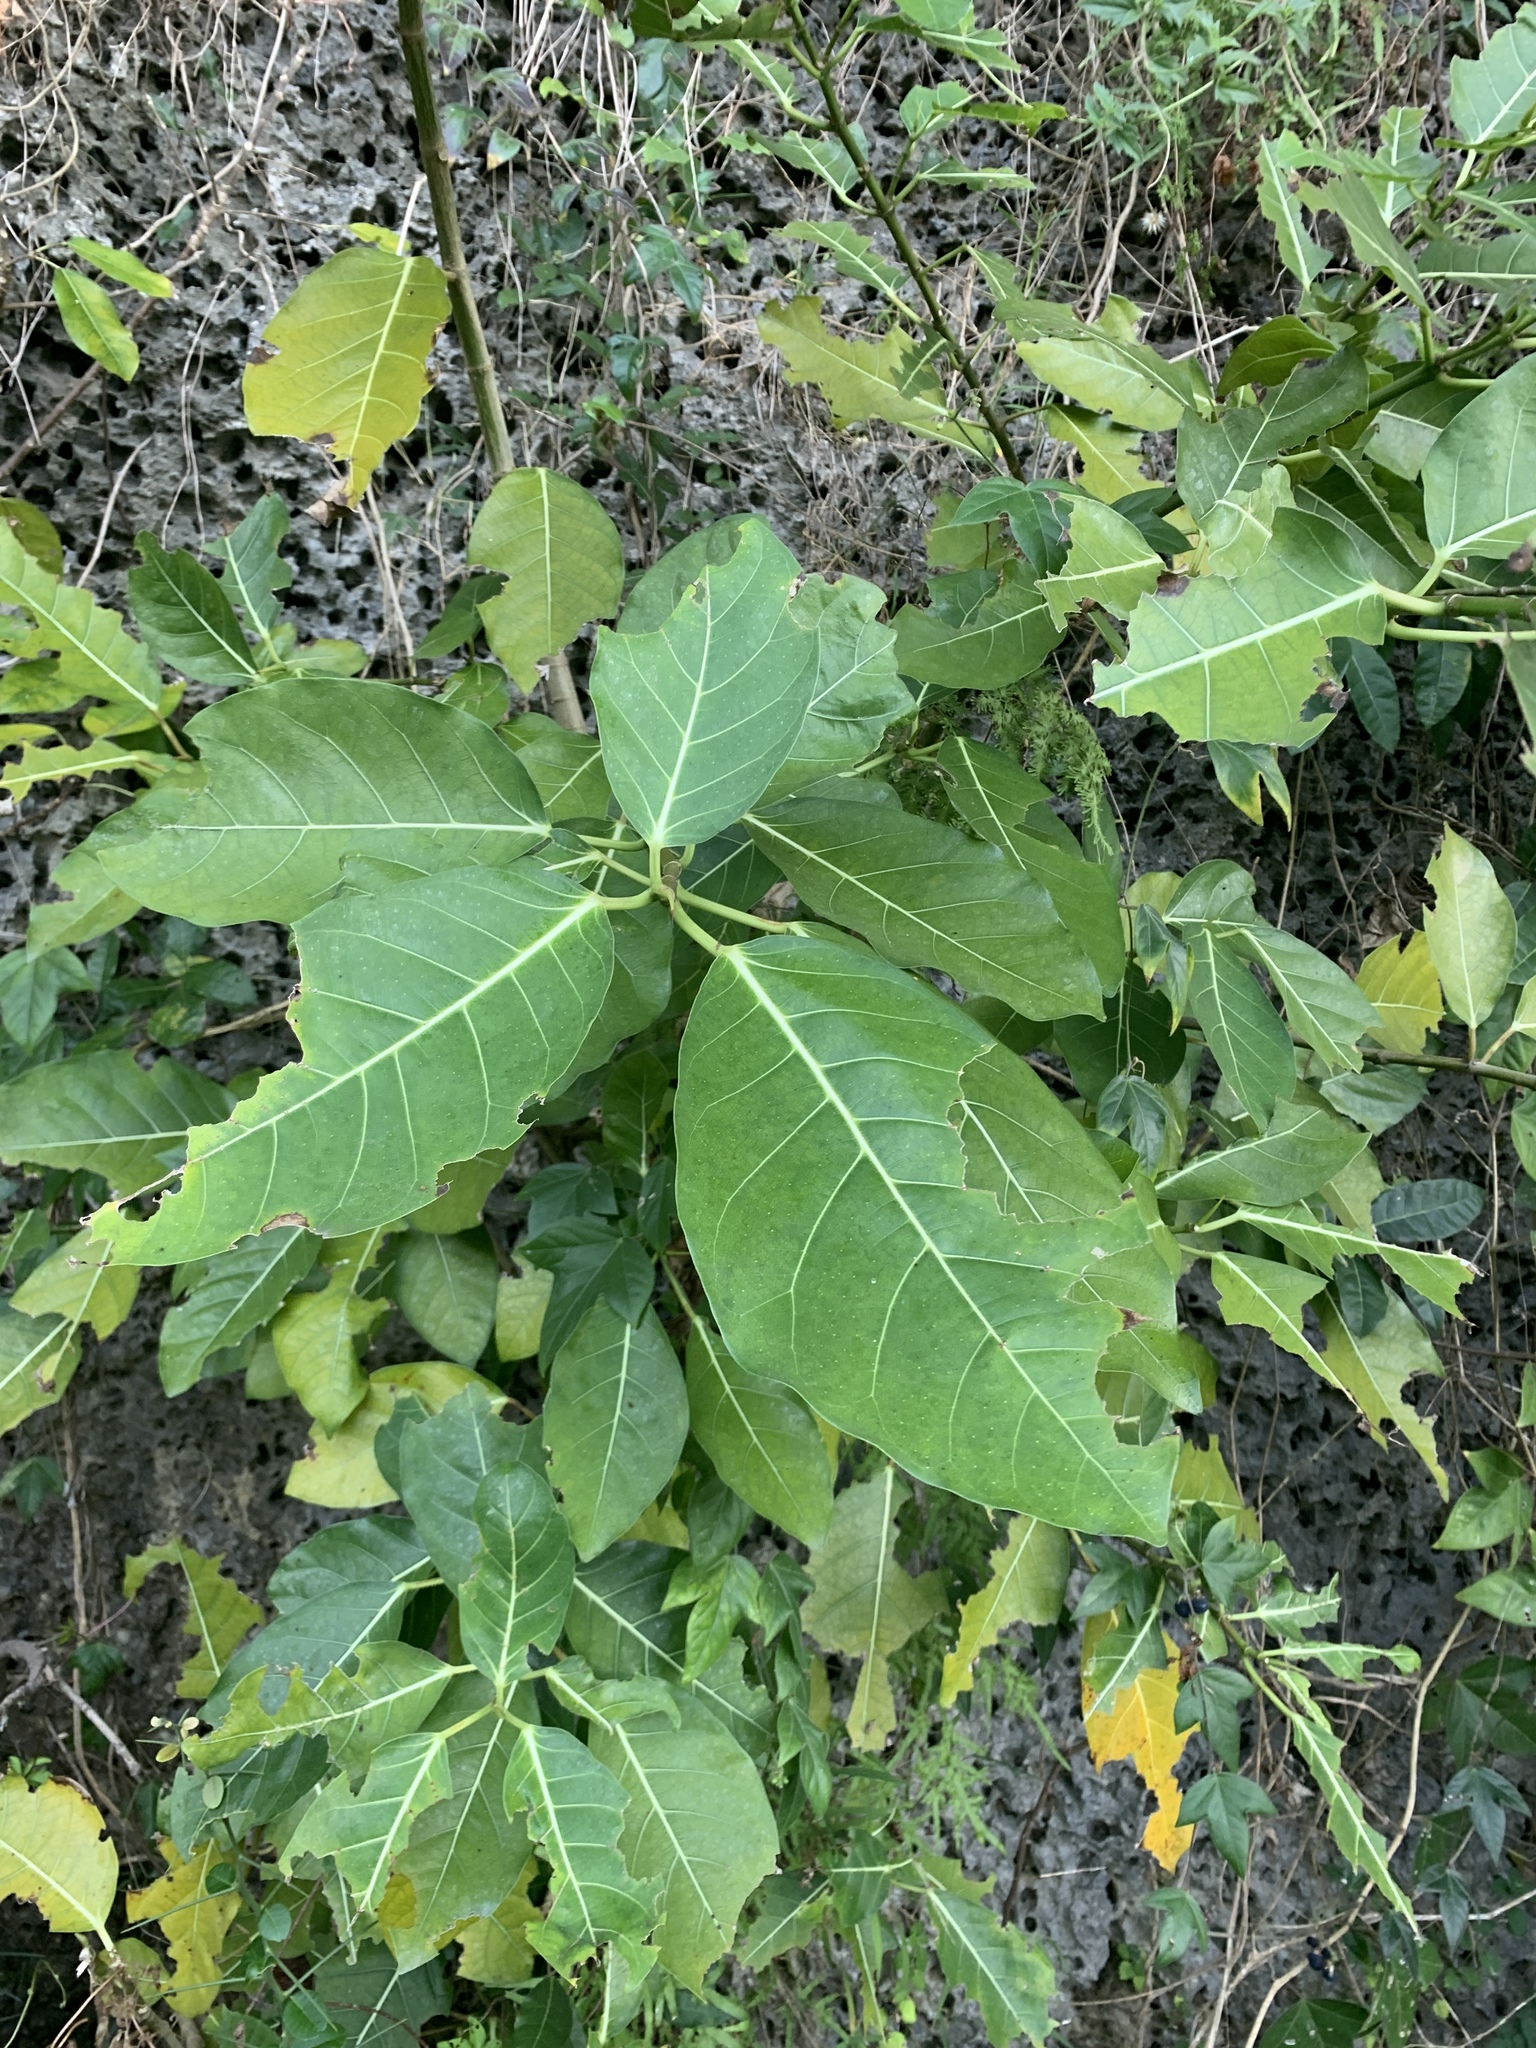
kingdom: Plantae
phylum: Tracheophyta
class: Magnoliopsida
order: Rosales
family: Moraceae
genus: Ficus
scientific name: Ficus septica
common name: Septic fig
